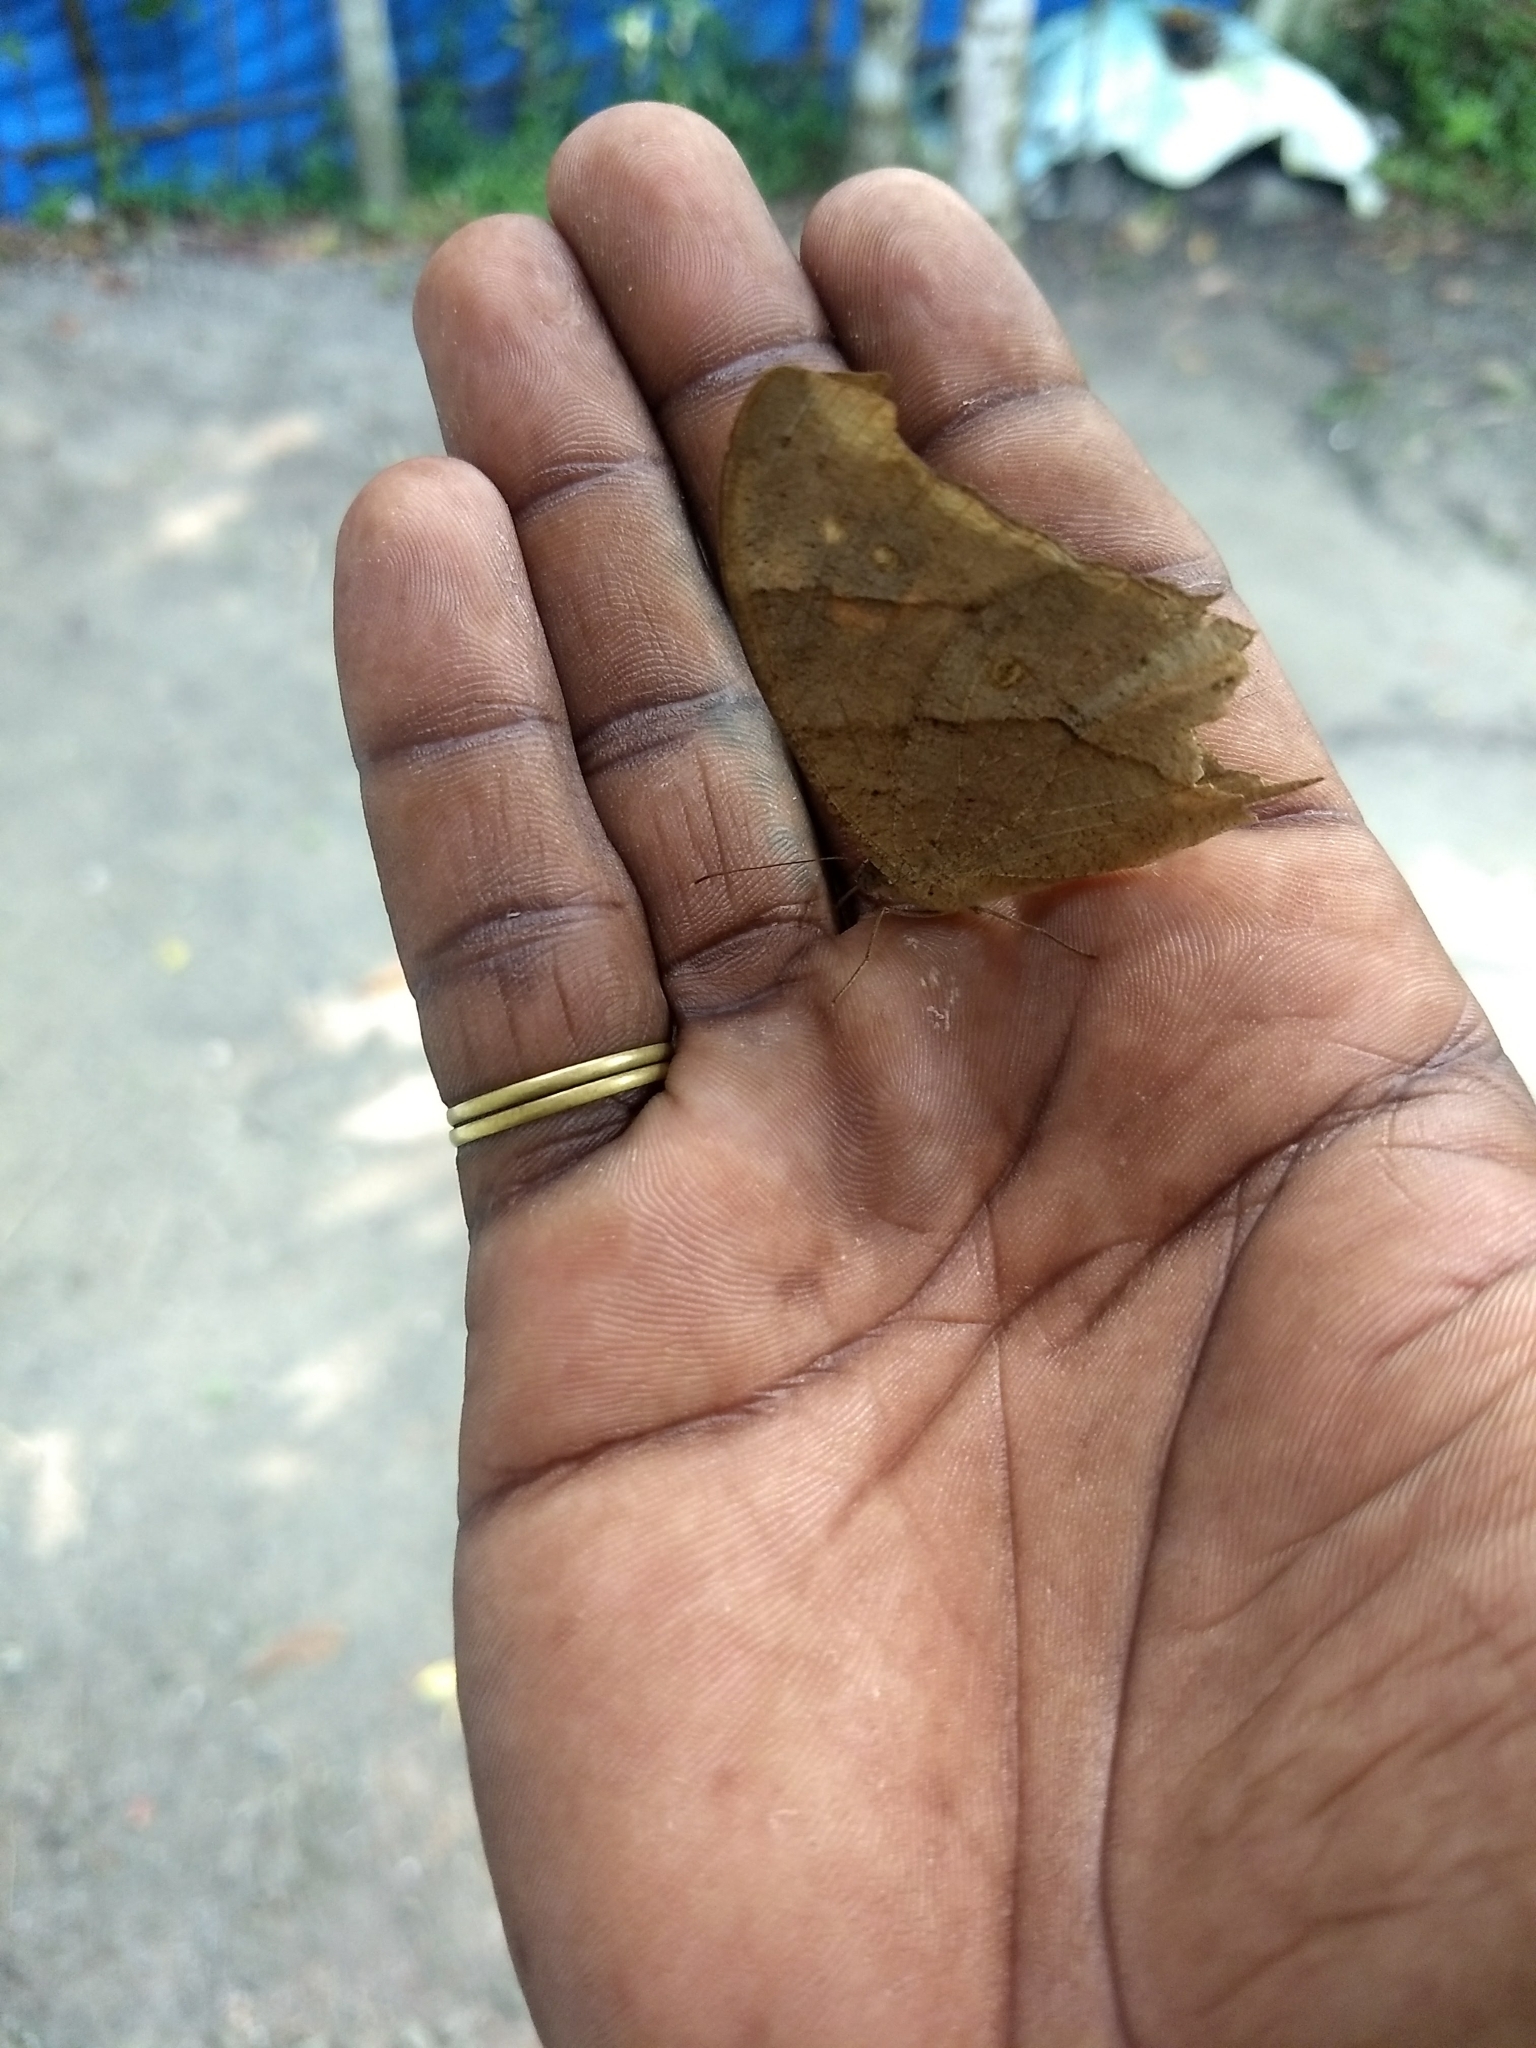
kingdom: Animalia
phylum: Arthropoda
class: Insecta
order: Lepidoptera
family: Nymphalidae
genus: Melanitis
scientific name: Melanitis leda
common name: Twilight brown
